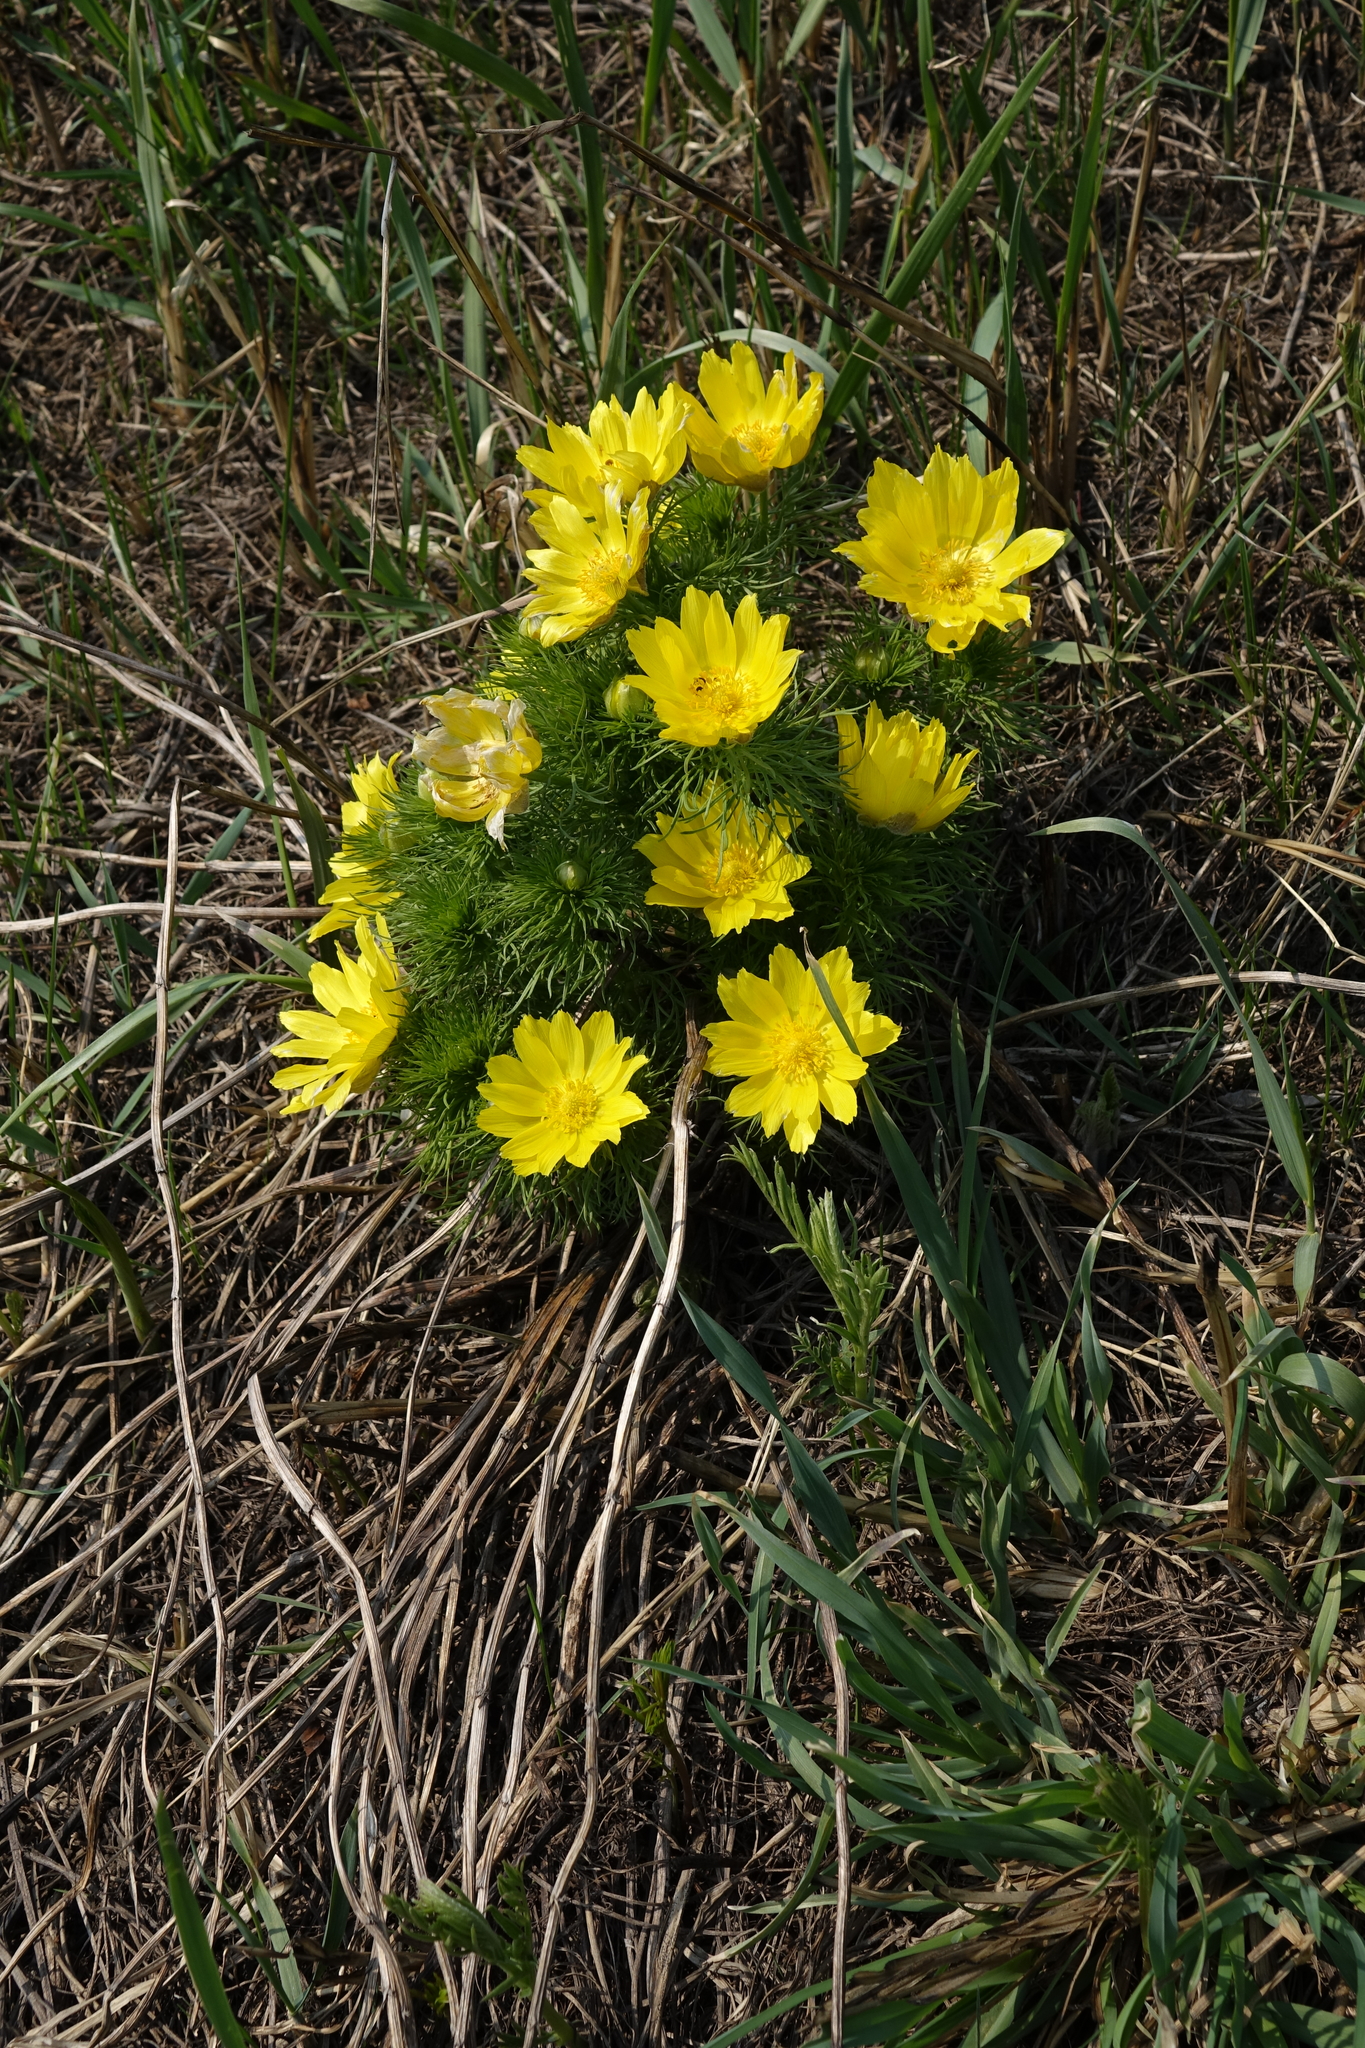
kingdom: Plantae
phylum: Tracheophyta
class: Magnoliopsida
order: Ranunculales
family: Ranunculaceae
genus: Adonis
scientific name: Adonis vernalis
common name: Yellow pheasants-eye
